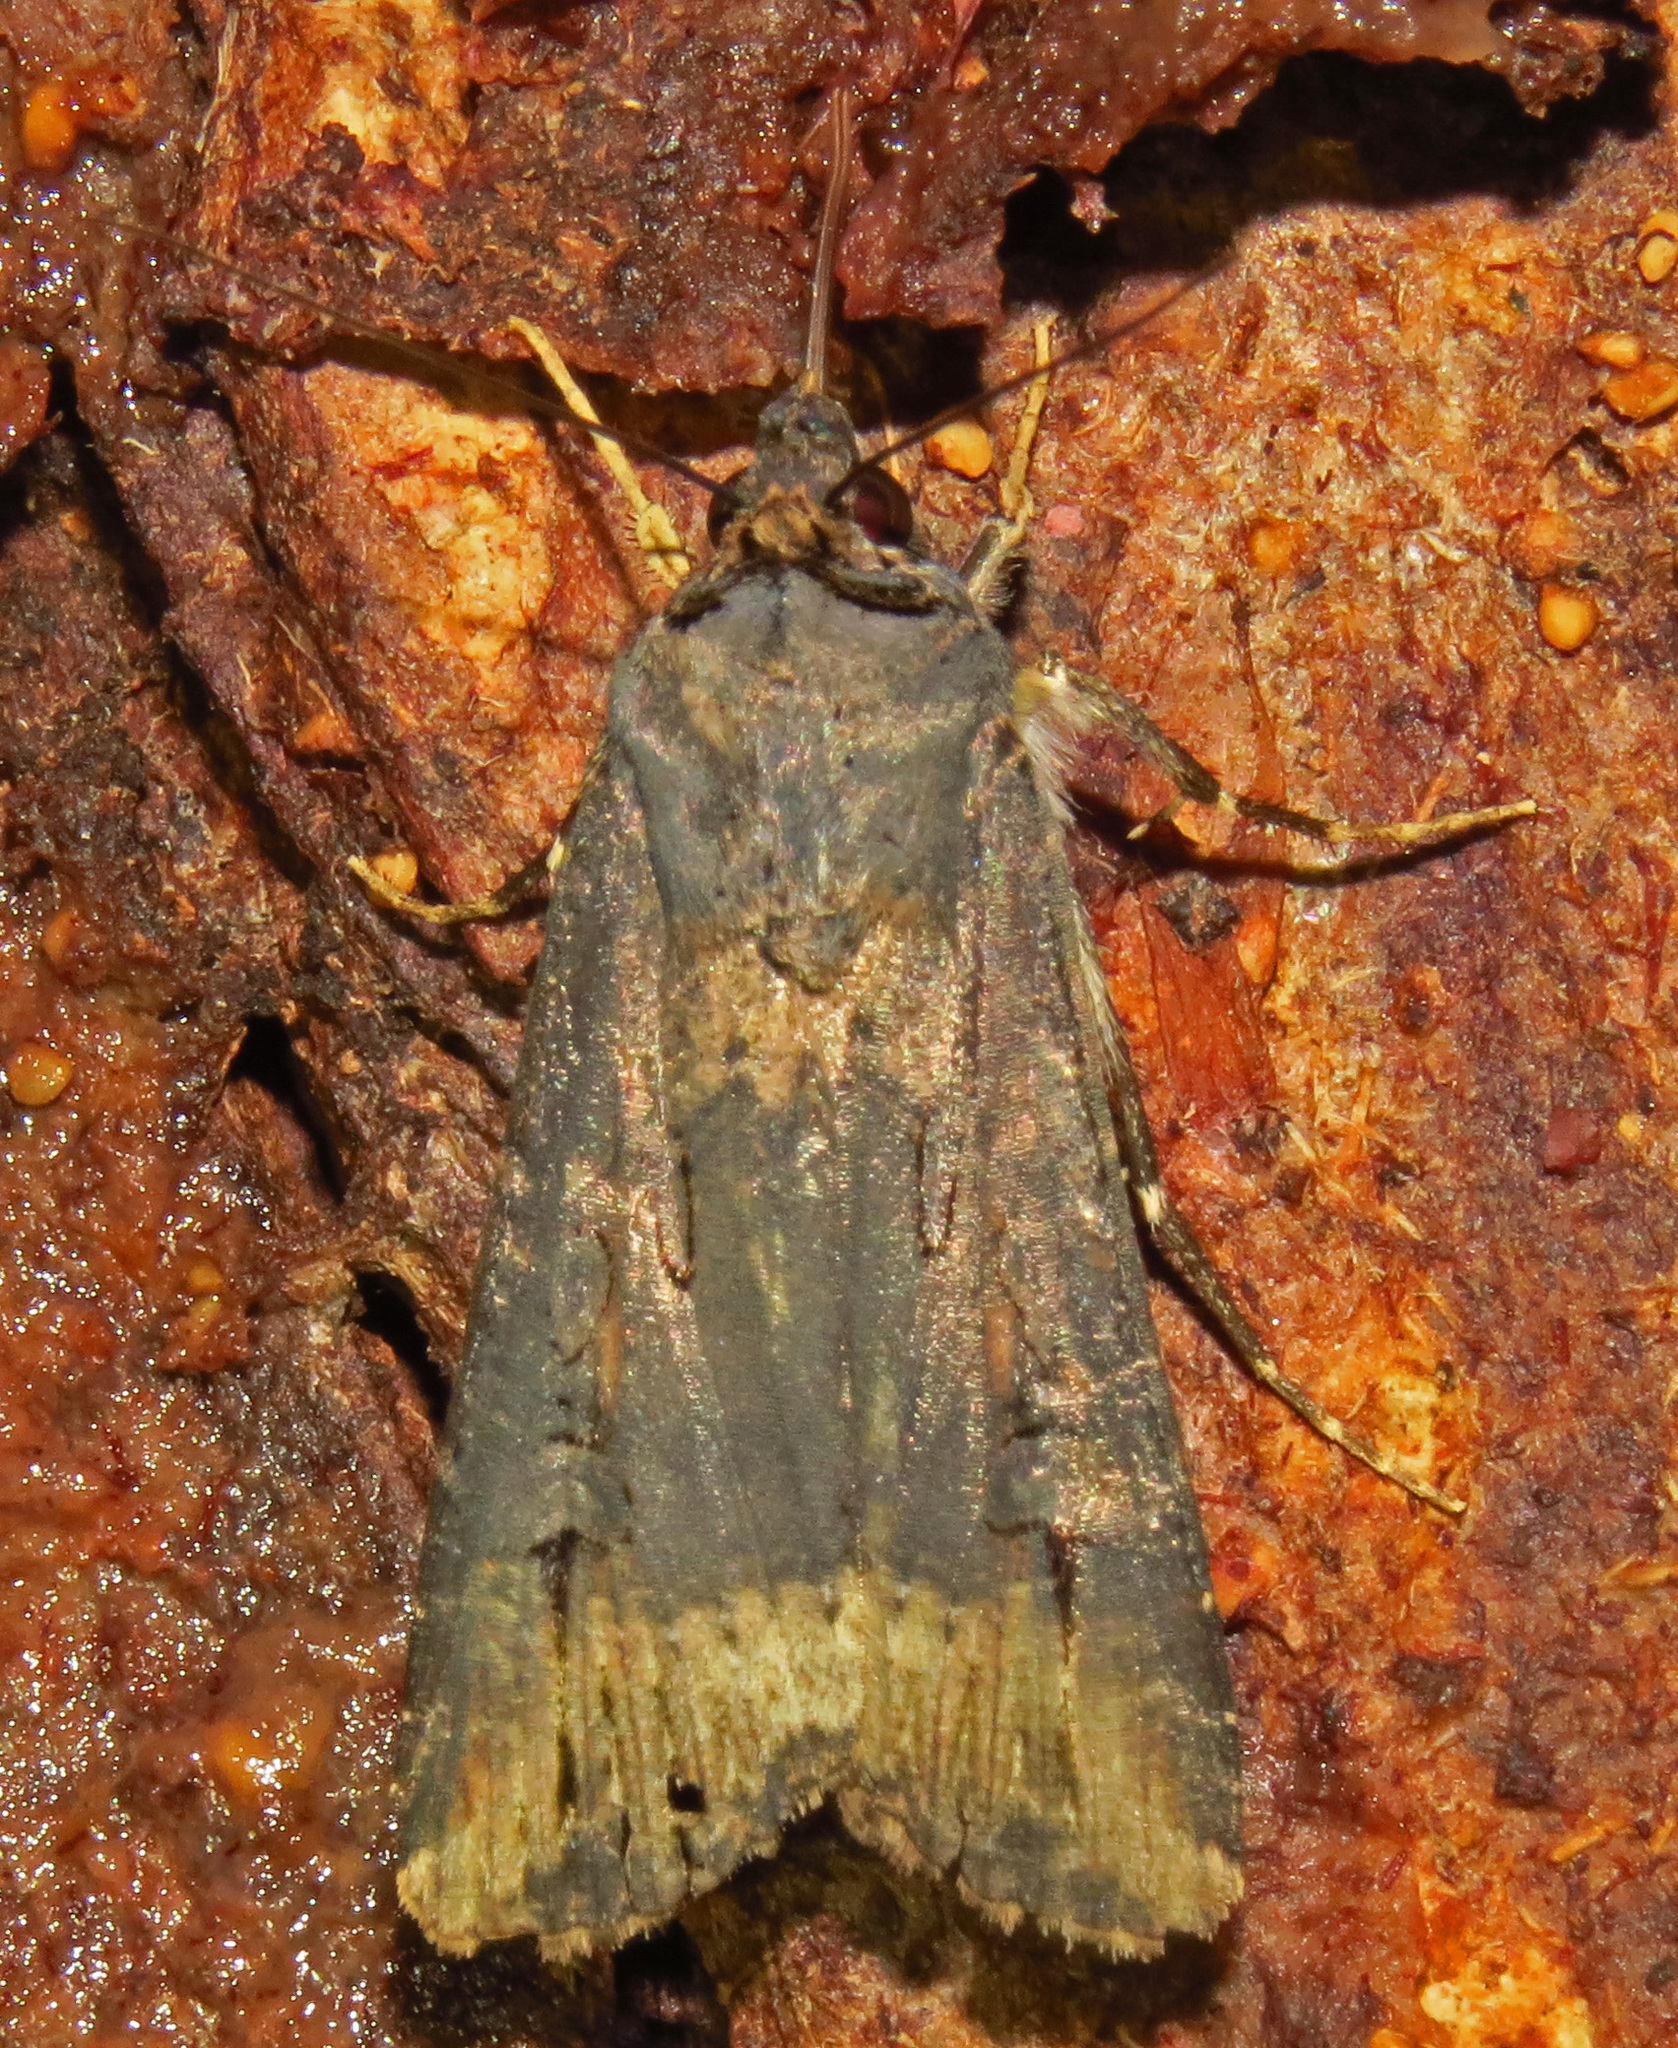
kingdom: Animalia
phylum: Arthropoda
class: Insecta
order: Lepidoptera
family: Noctuidae
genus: Agrotis
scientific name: Agrotis ipsilon
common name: Dark sword-grass
